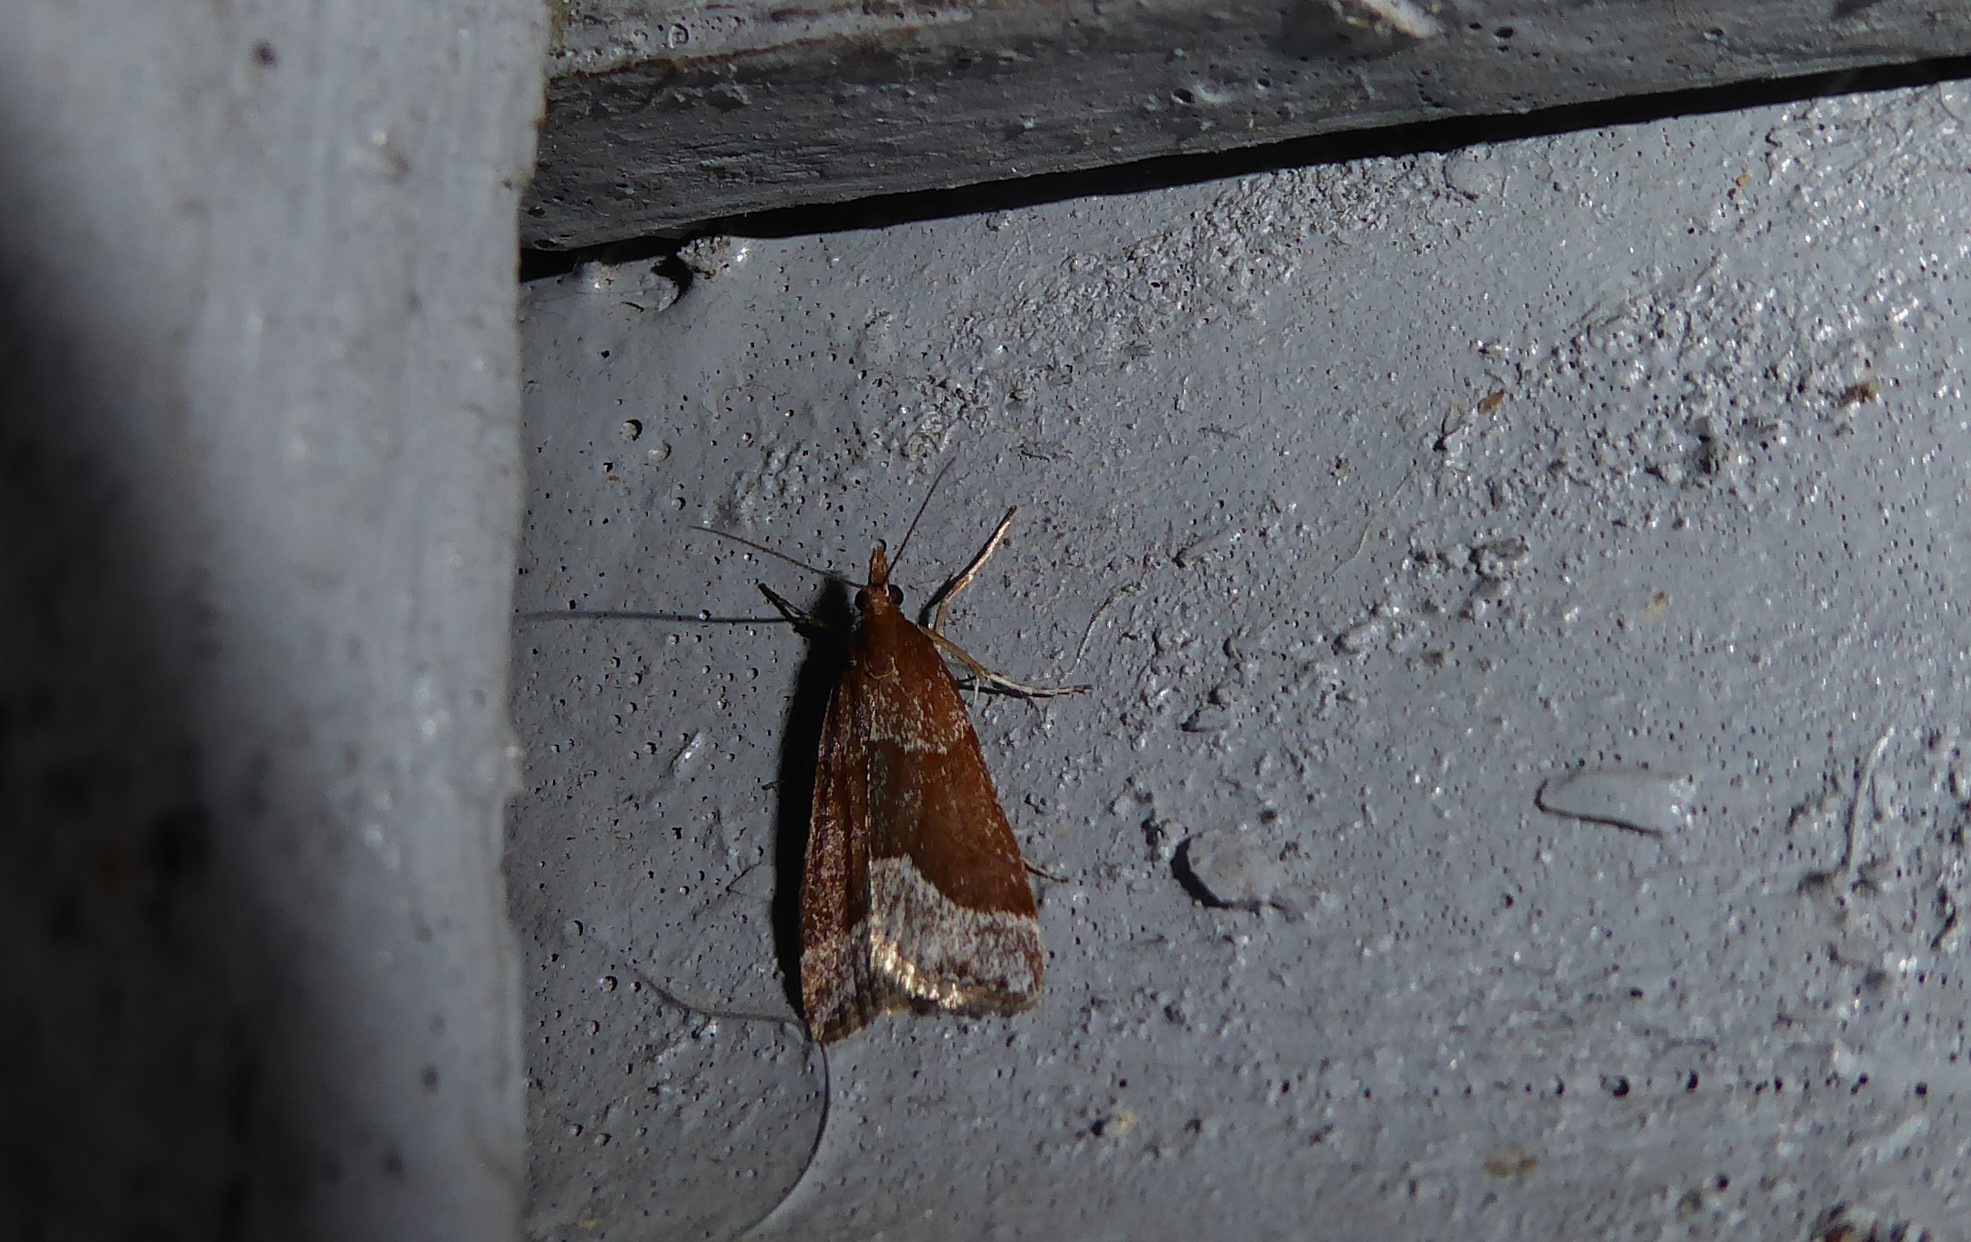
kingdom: Animalia
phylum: Arthropoda
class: Insecta
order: Lepidoptera
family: Crambidae
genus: Eudonia
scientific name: Eudonia feredayi
